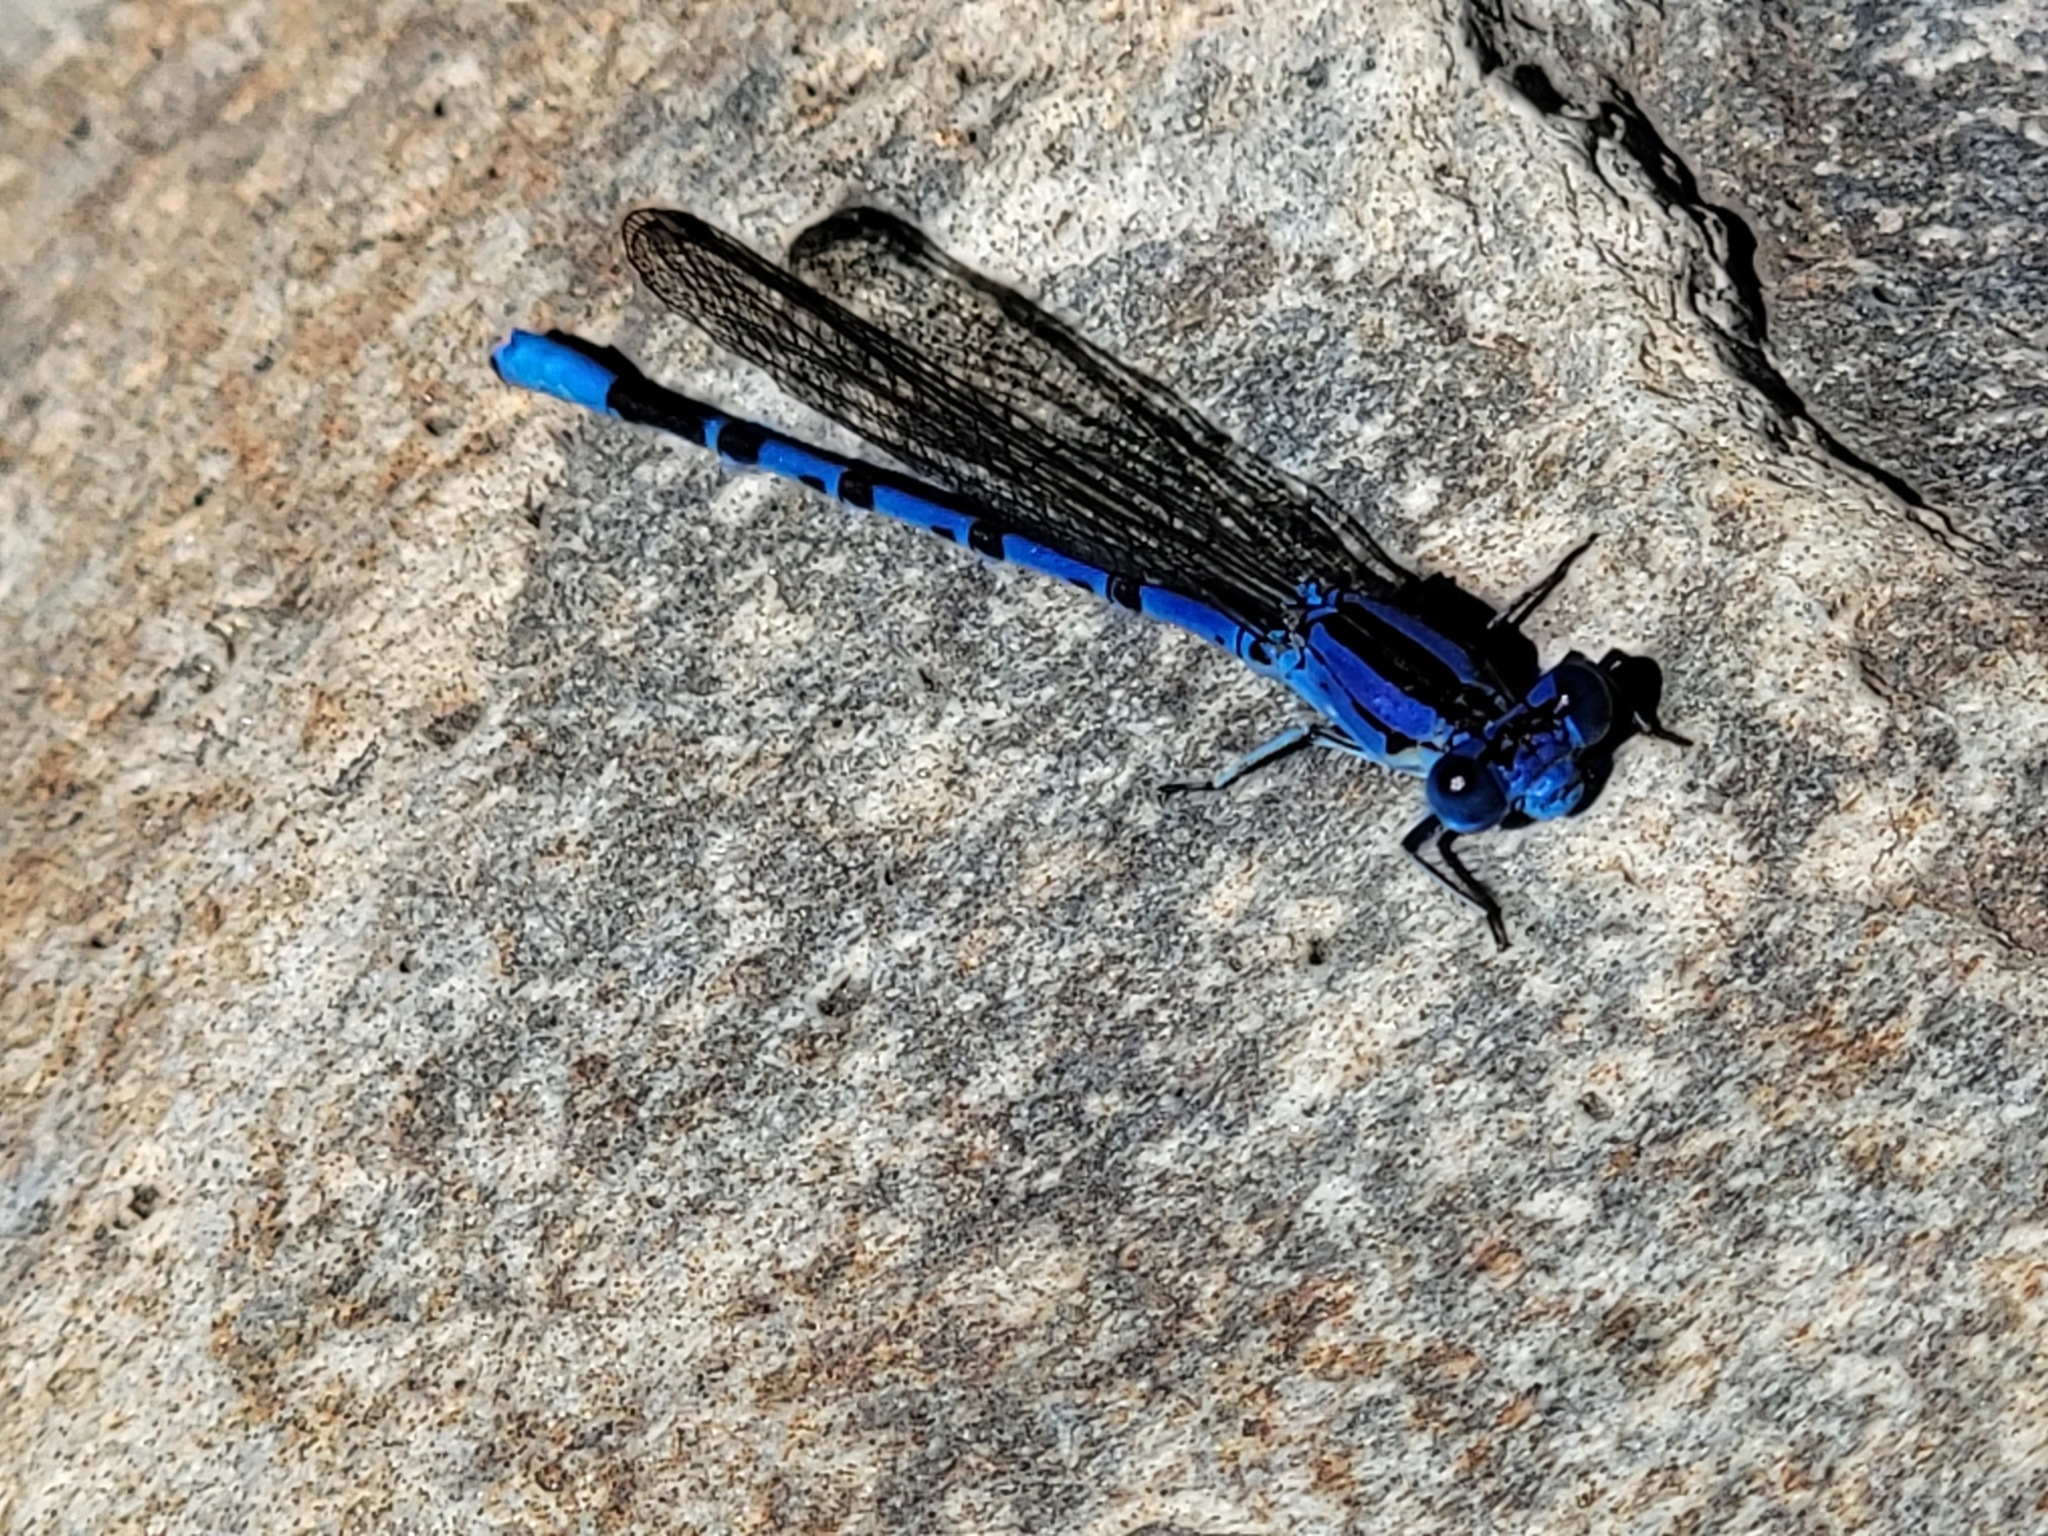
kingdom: Animalia
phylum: Arthropoda
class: Insecta
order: Odonata
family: Coenagrionidae
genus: Argia
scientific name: Argia vivida
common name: Vivid dancer
